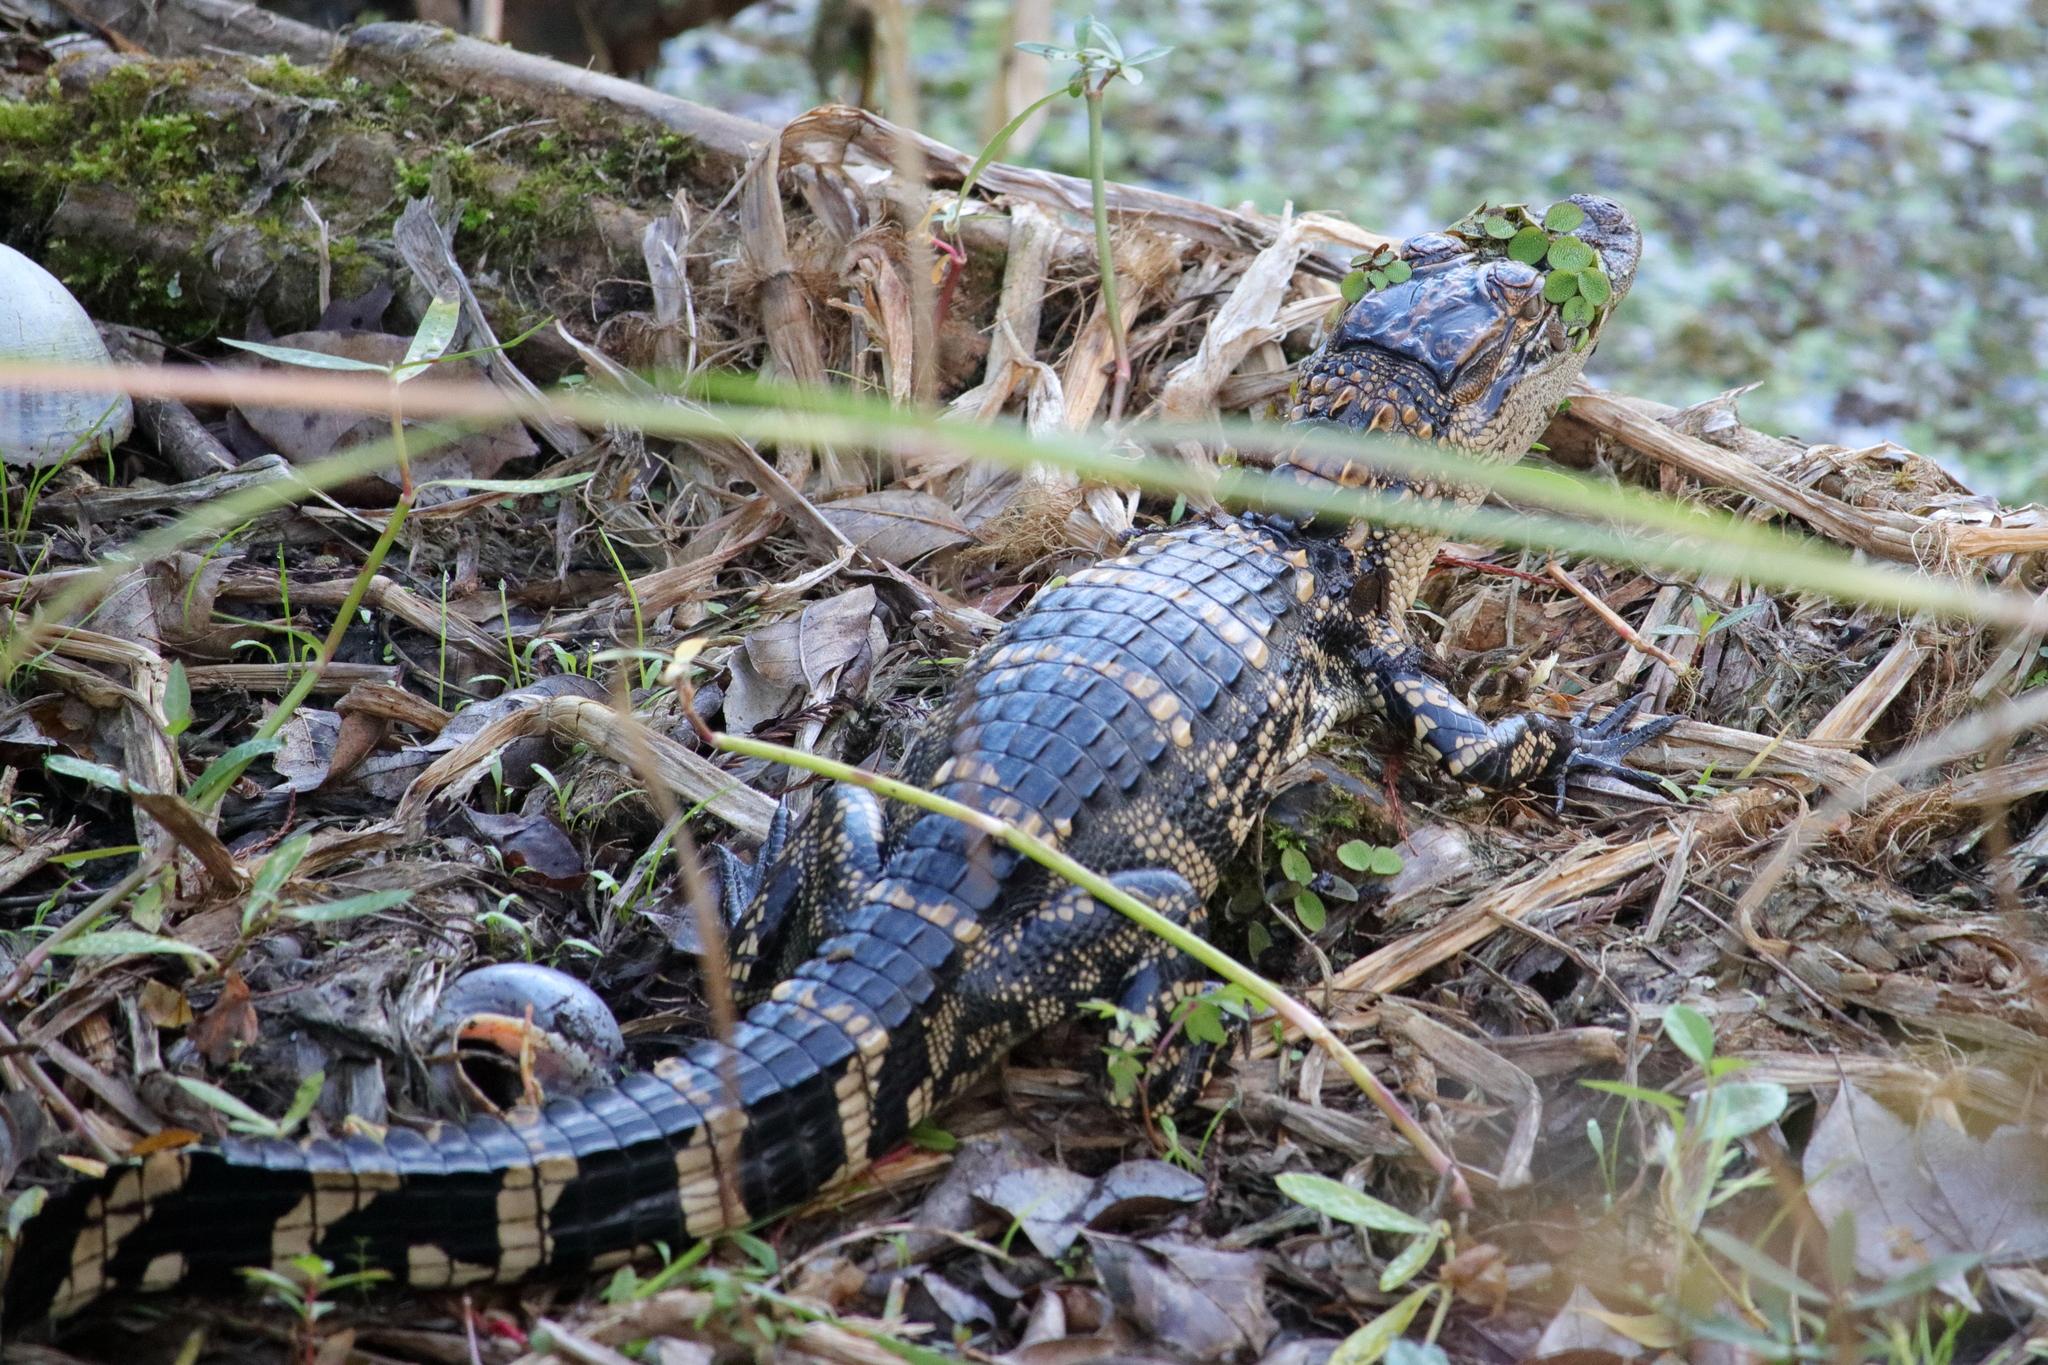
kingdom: Animalia
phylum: Chordata
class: Crocodylia
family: Alligatoridae
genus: Alligator
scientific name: Alligator mississippiensis
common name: American alligator
